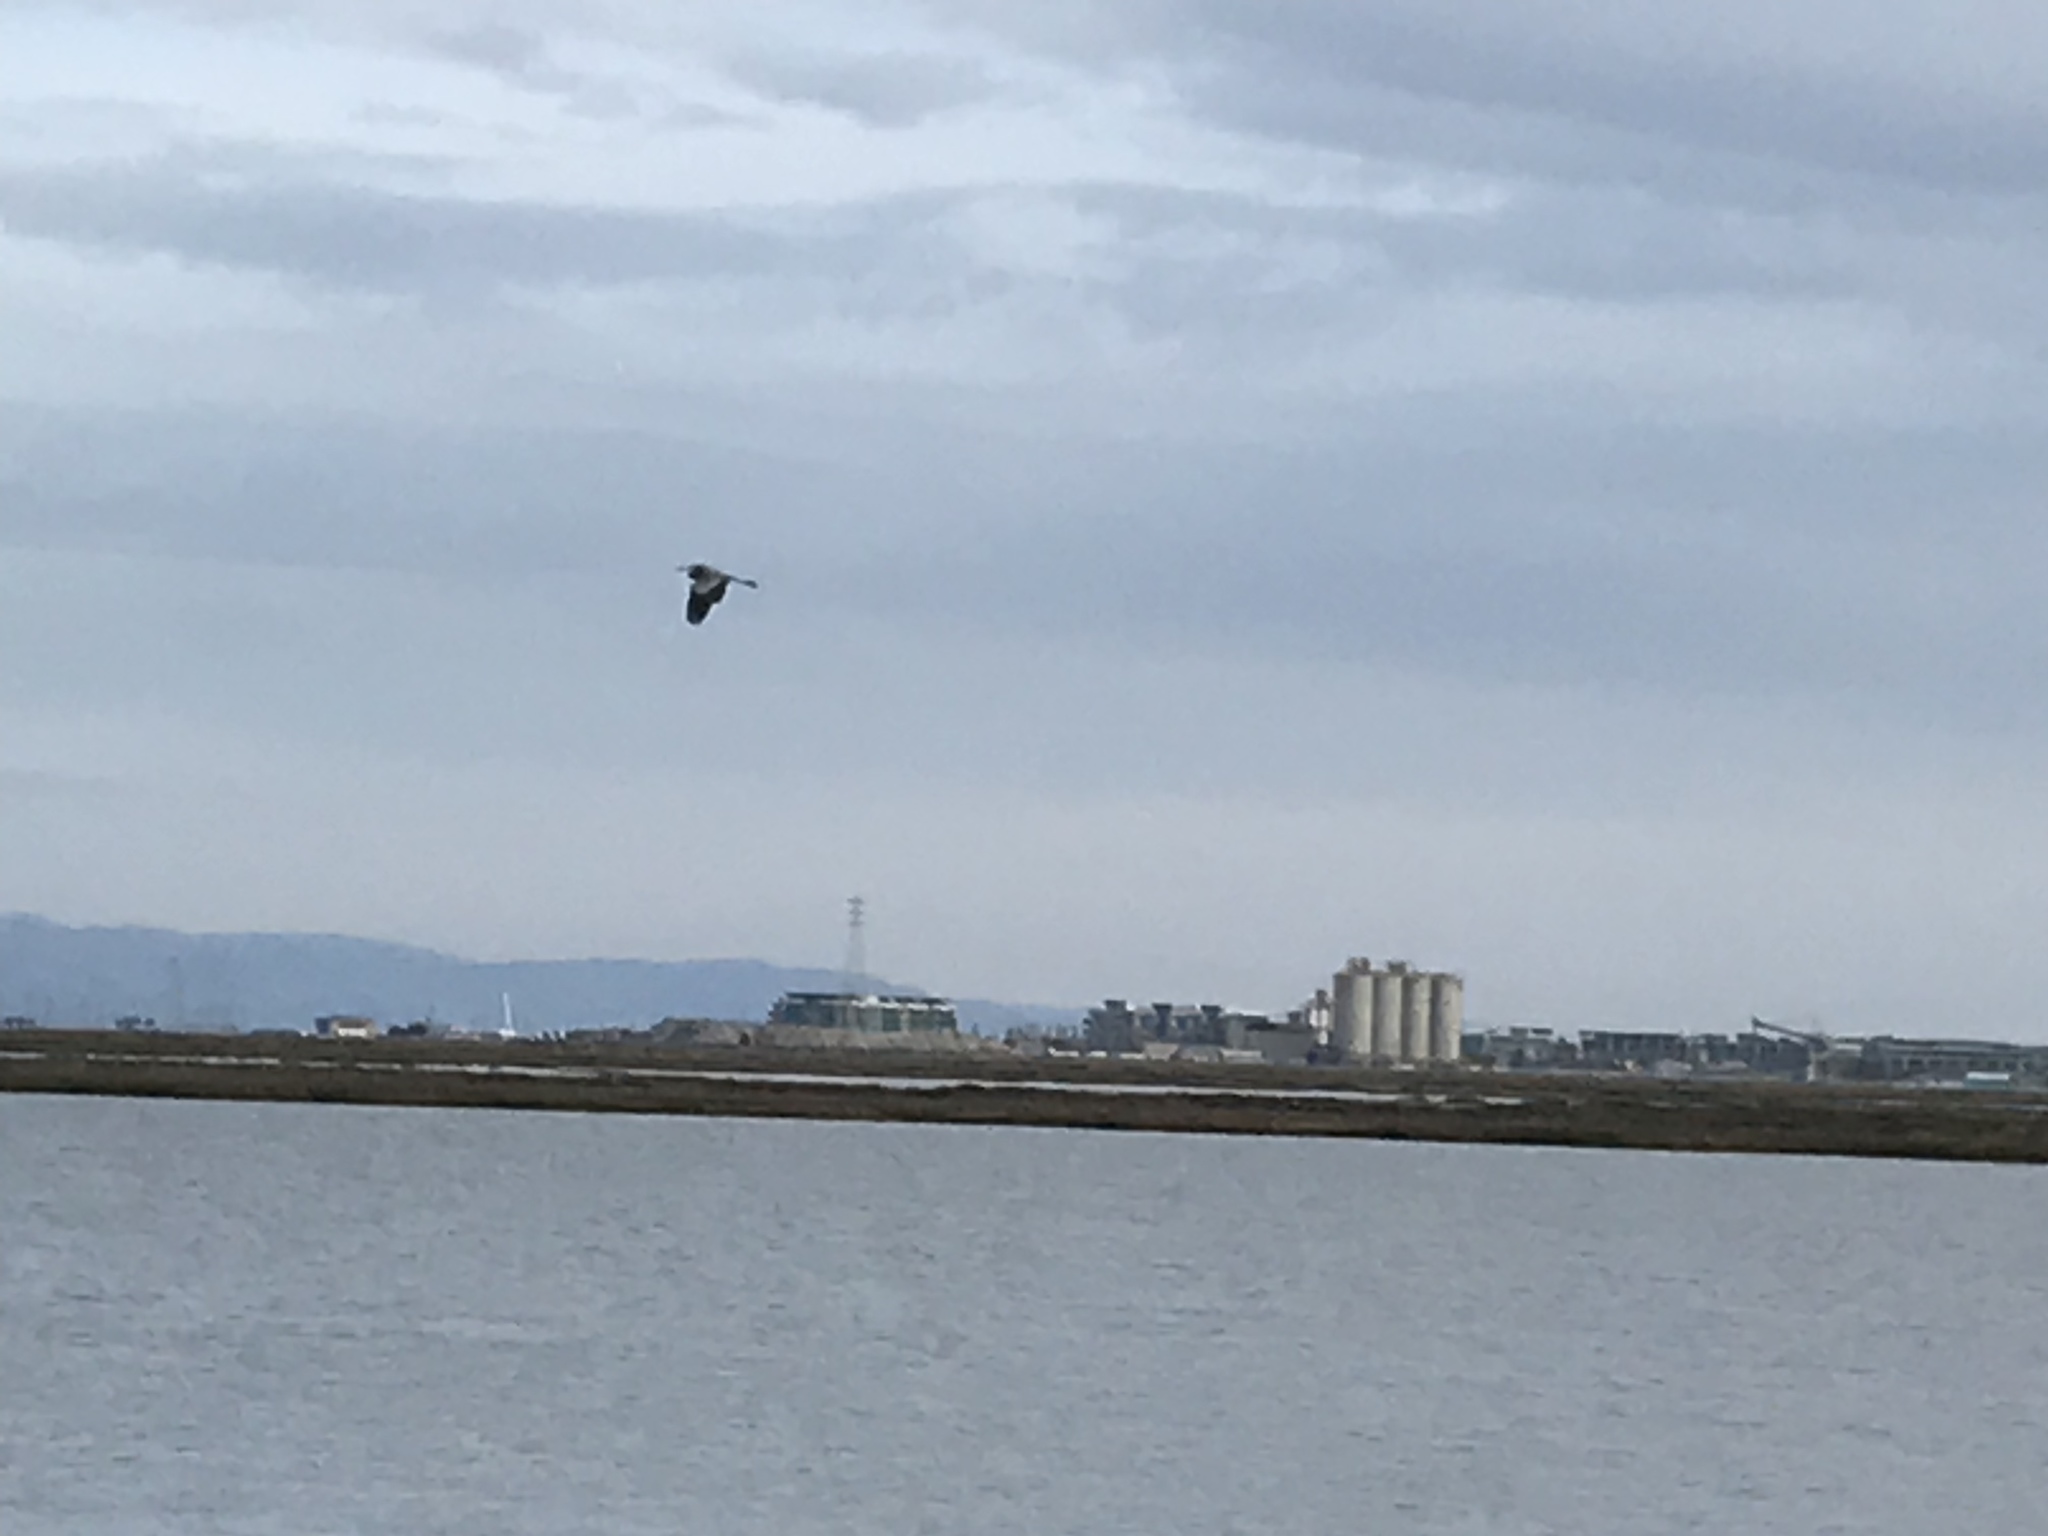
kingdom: Animalia
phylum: Chordata
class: Aves
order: Pelecaniformes
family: Ardeidae
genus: Ardea
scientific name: Ardea herodias
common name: Great blue heron
